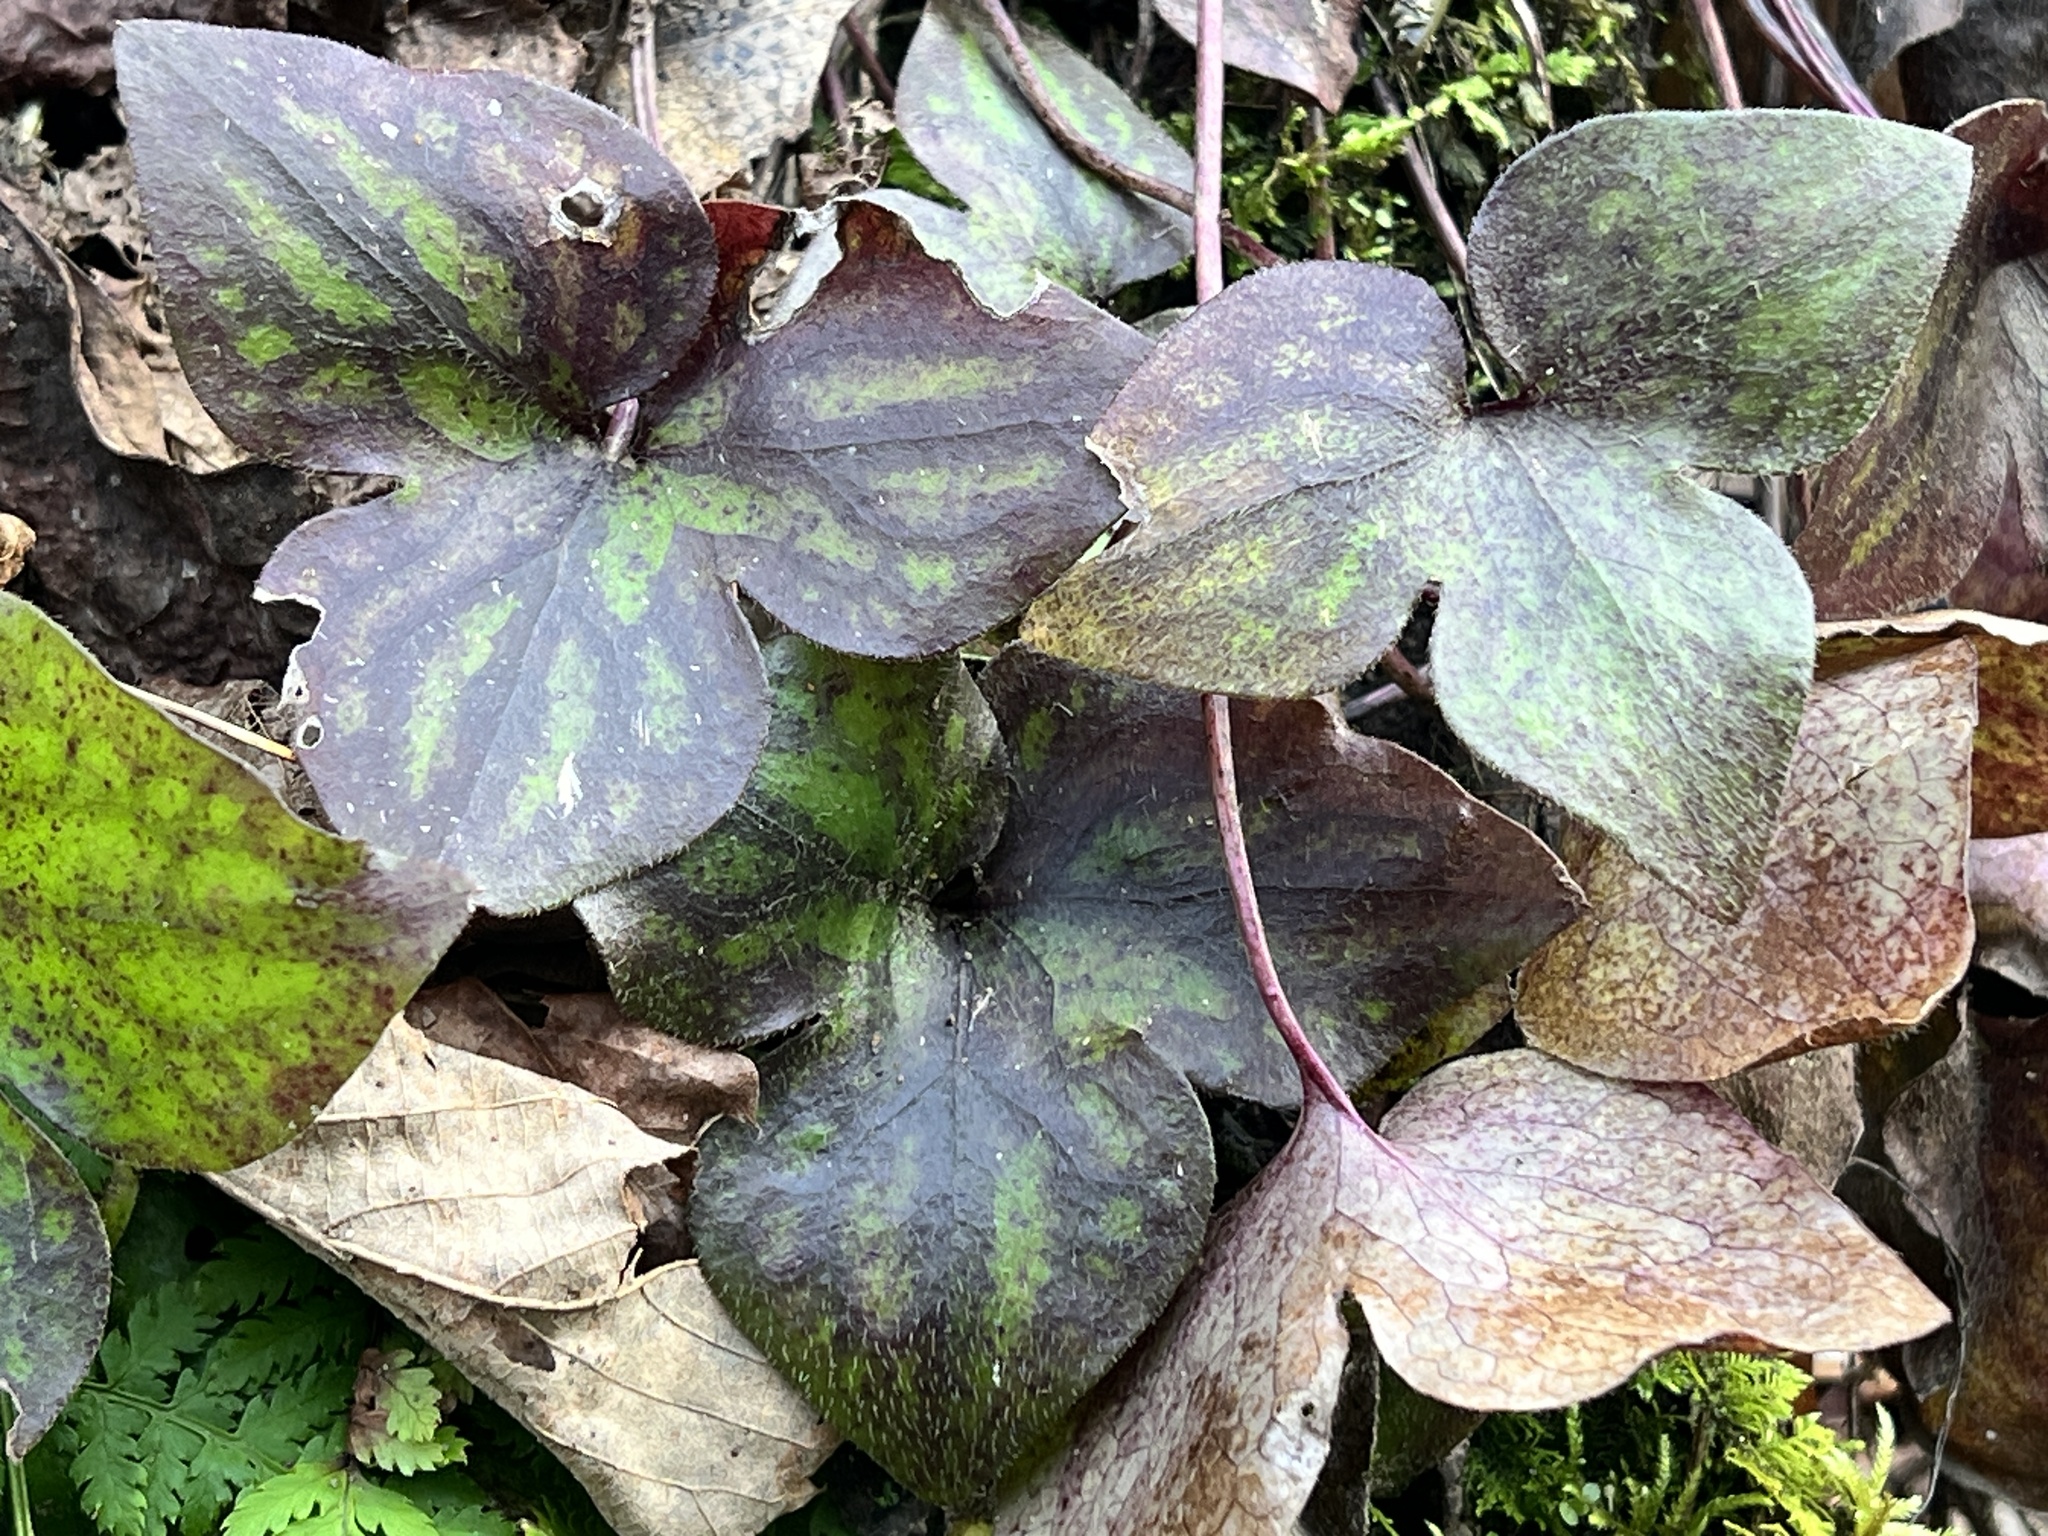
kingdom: Plantae
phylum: Tracheophyta
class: Magnoliopsida
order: Ranunculales
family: Ranunculaceae
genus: Hepatica
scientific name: Hepatica acutiloba
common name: Sharp-lobed hepatica
